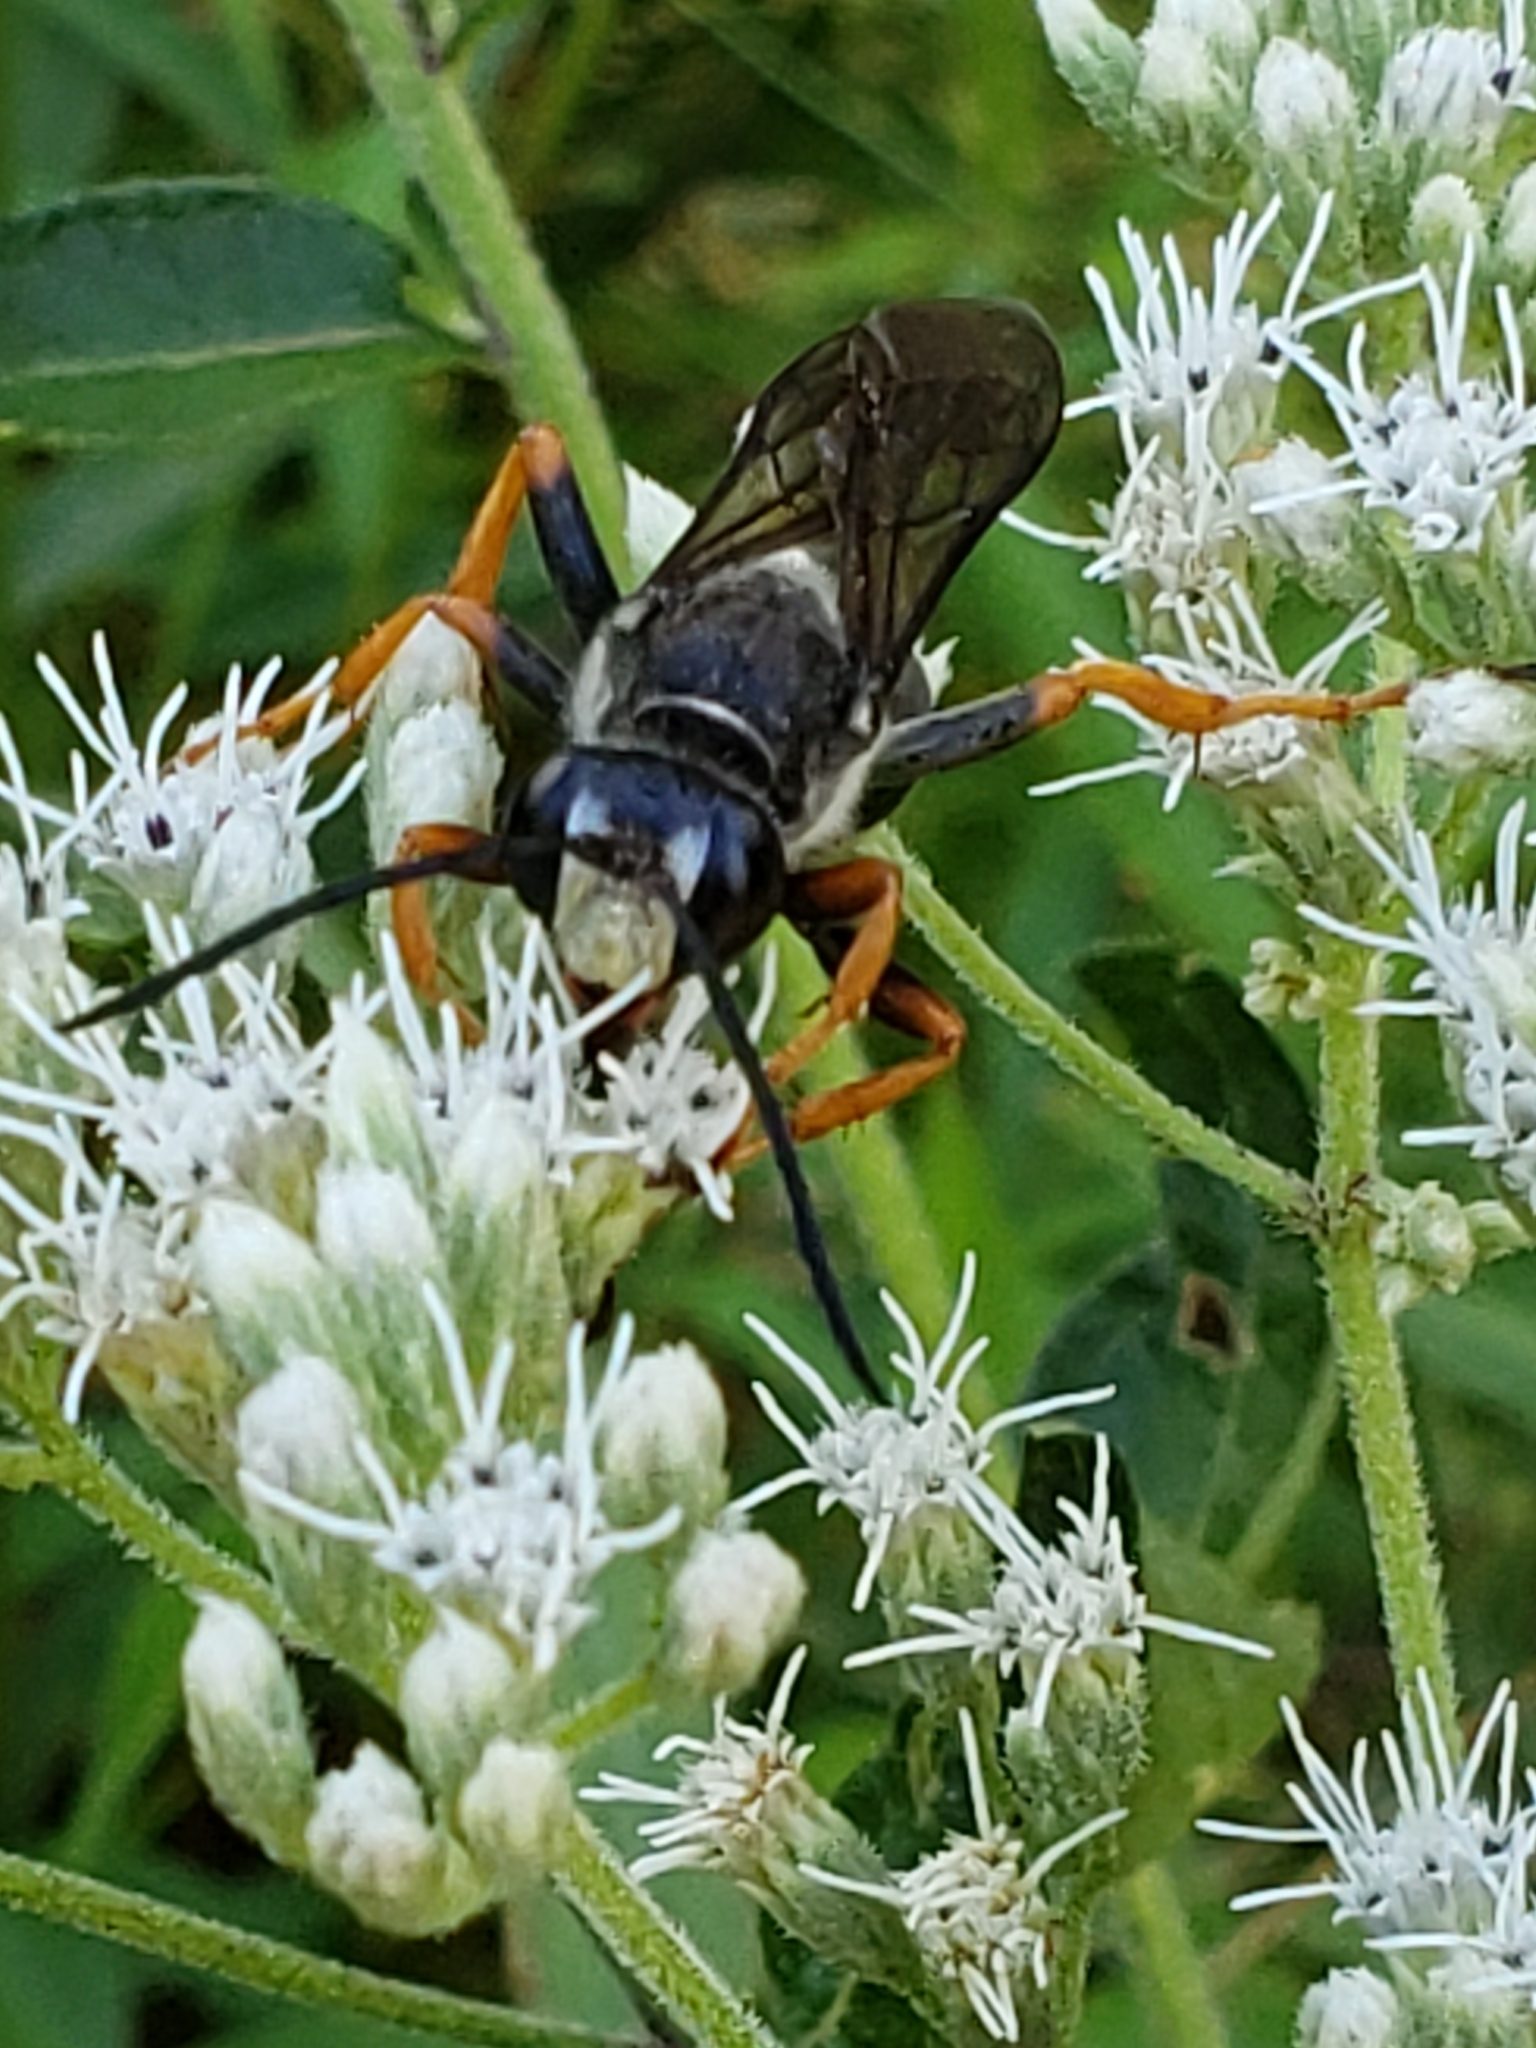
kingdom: Animalia
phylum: Arthropoda
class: Insecta
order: Hymenoptera
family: Sphecidae
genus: Sphex
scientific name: Sphex nudus
